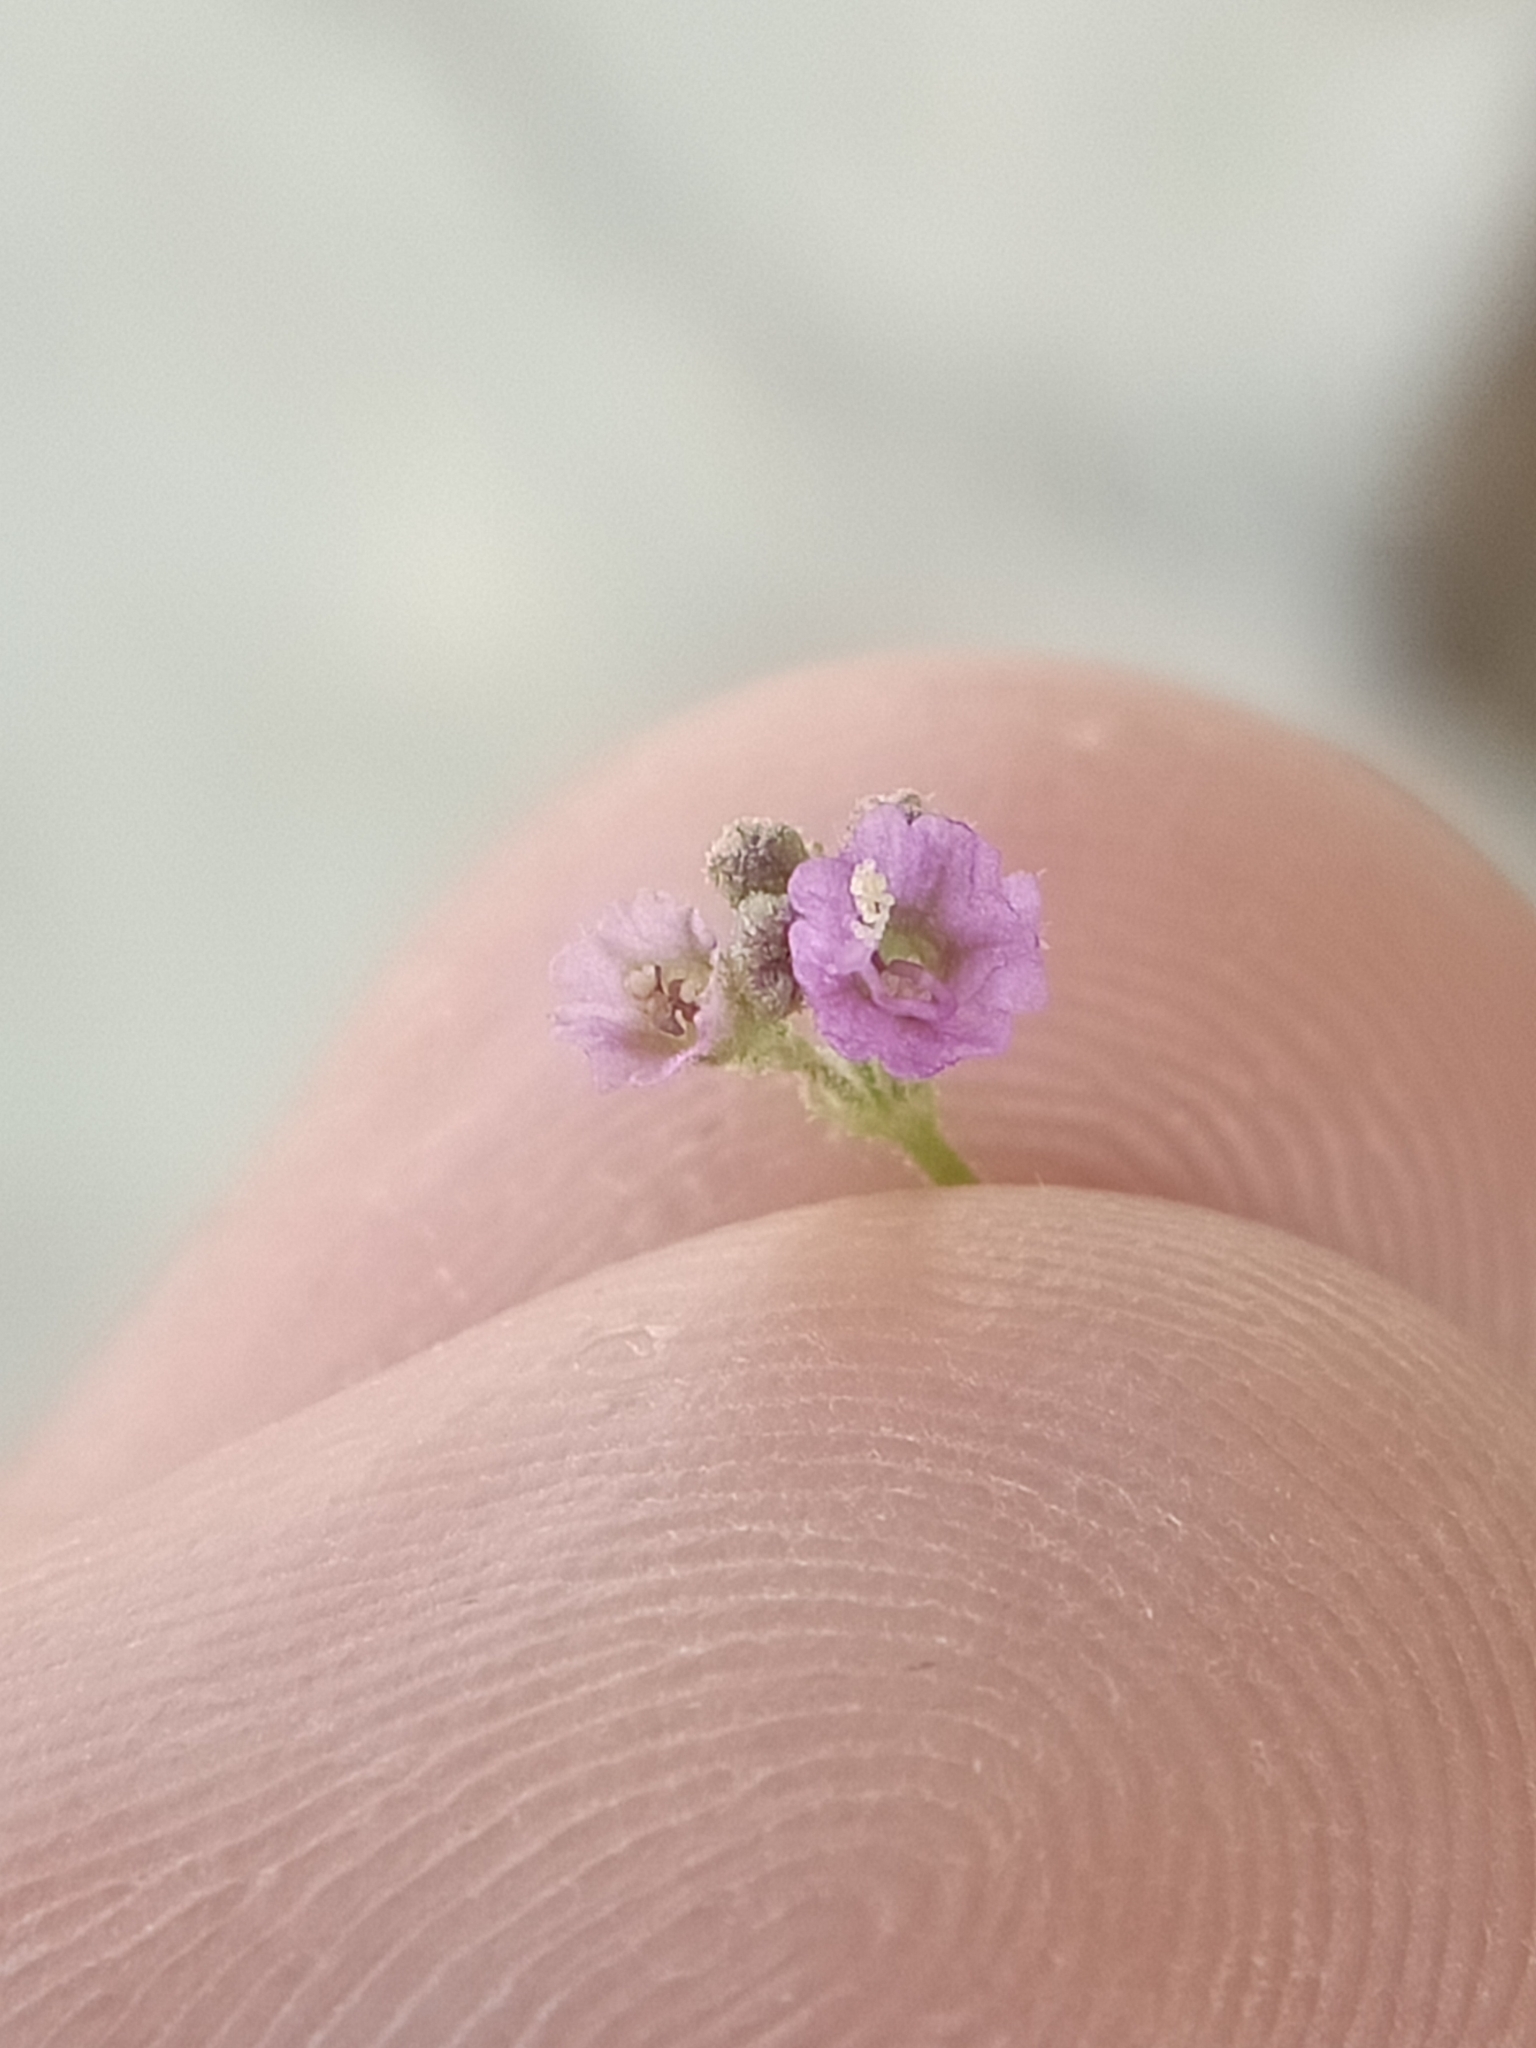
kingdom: Plantae
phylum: Tracheophyta
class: Magnoliopsida
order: Caryophyllales
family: Nyctaginaceae
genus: Boerhavia
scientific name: Boerhavia diffusa
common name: Red spiderling
